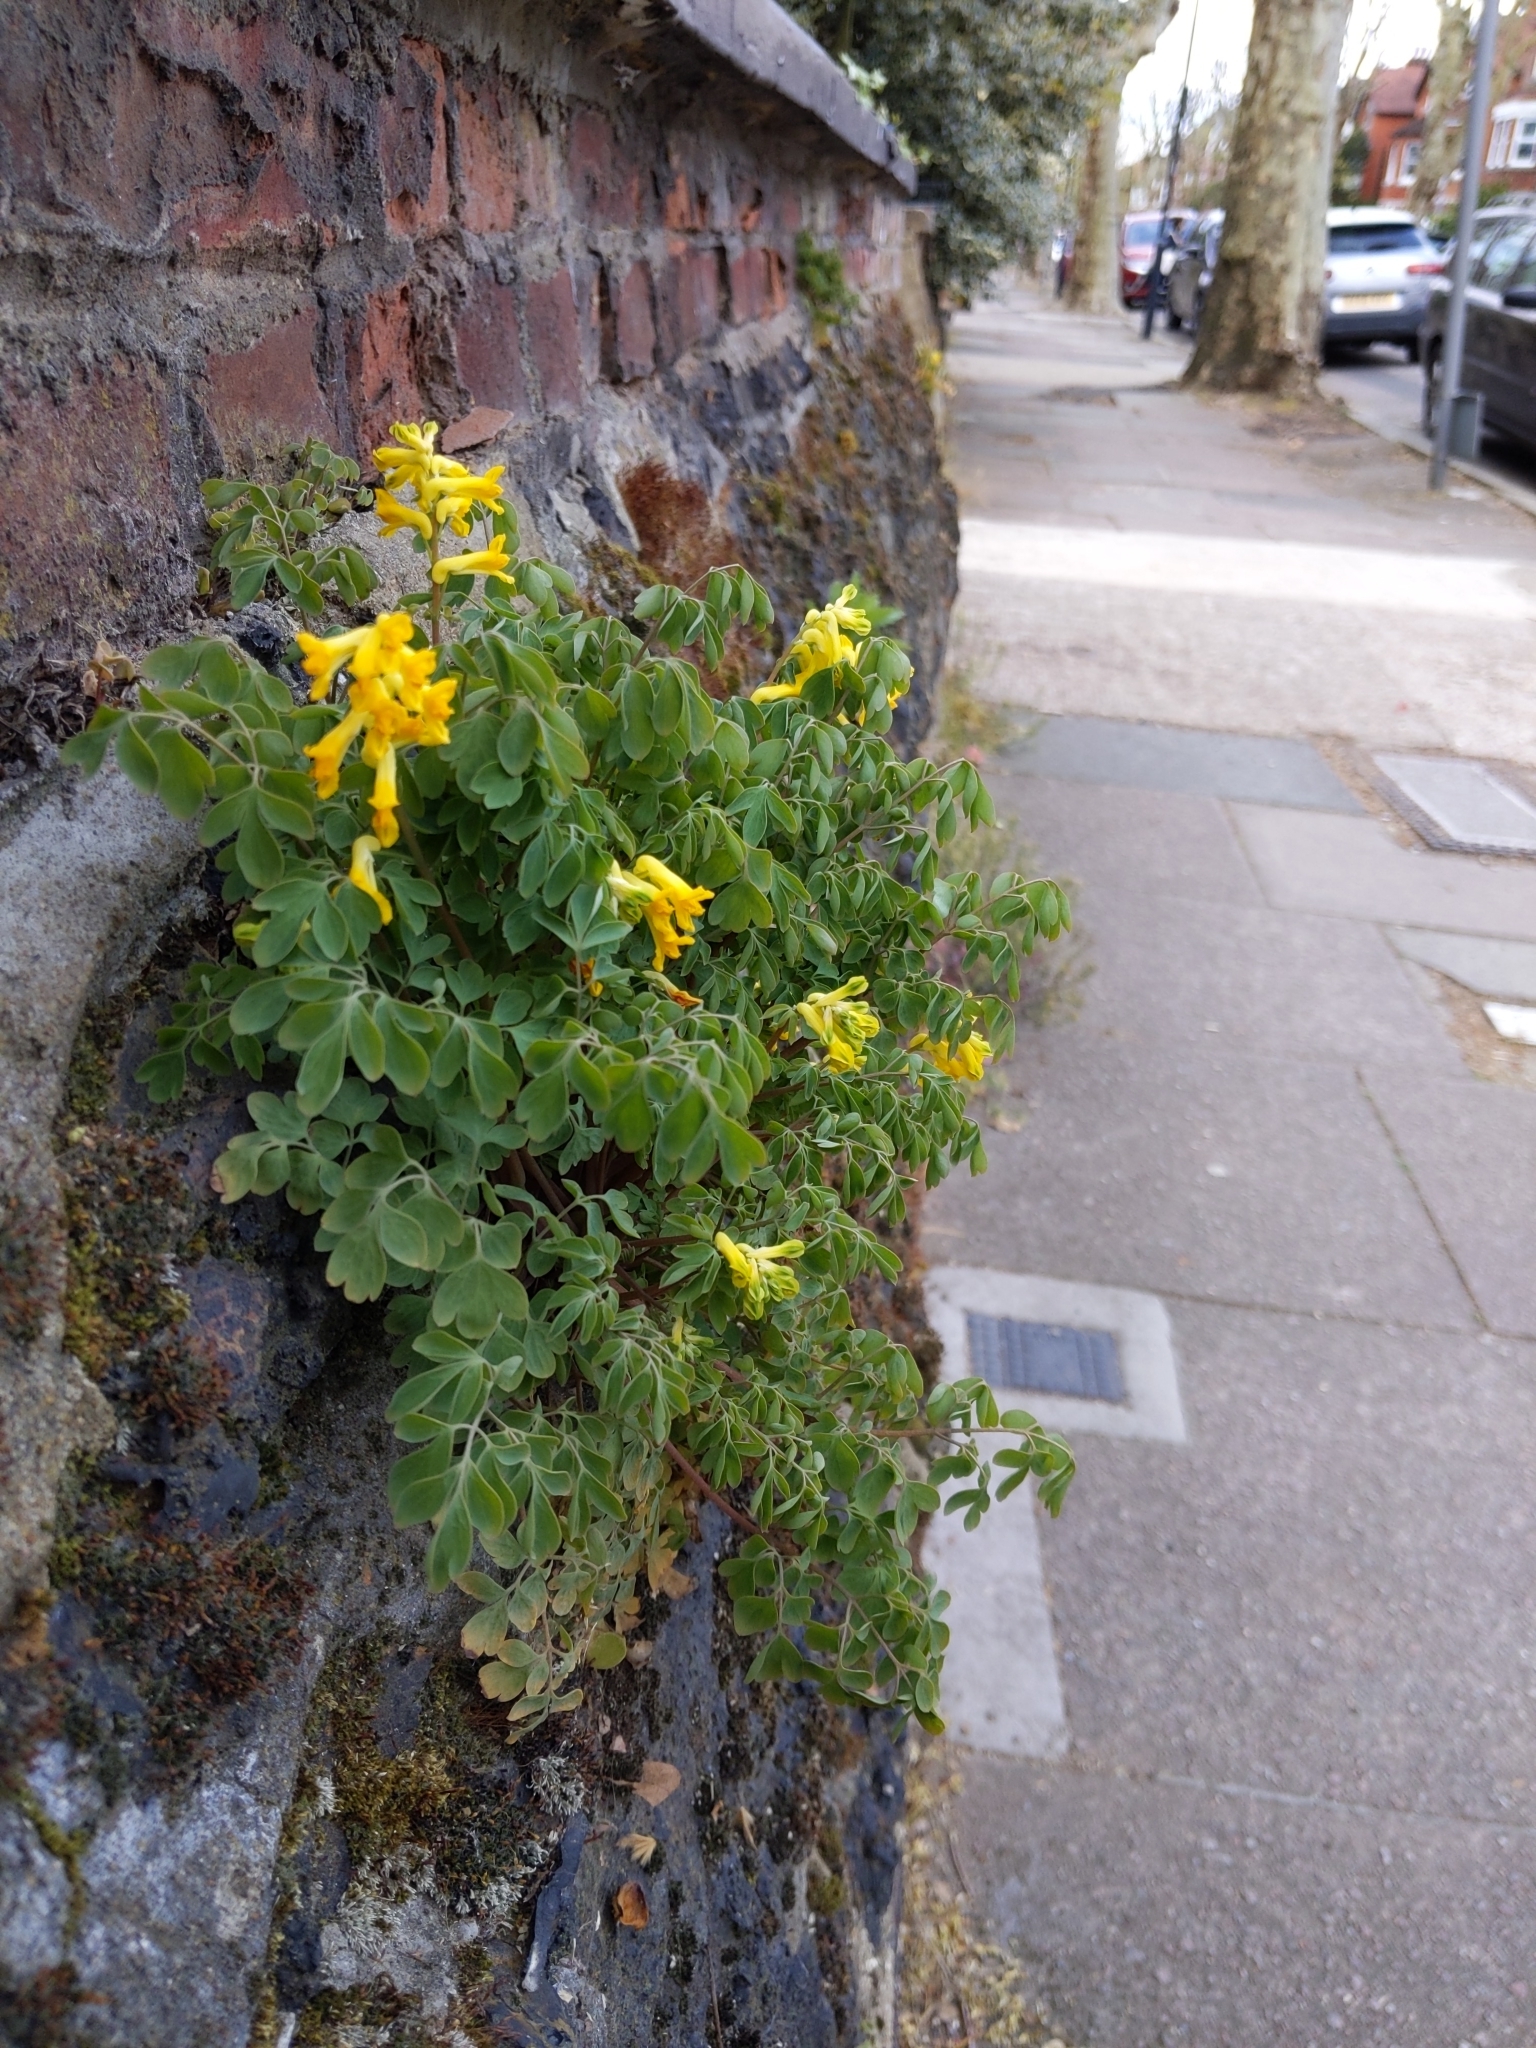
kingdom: Plantae
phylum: Tracheophyta
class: Magnoliopsida
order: Ranunculales
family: Papaveraceae
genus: Pseudofumaria
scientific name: Pseudofumaria lutea
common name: Yellow corydalis
